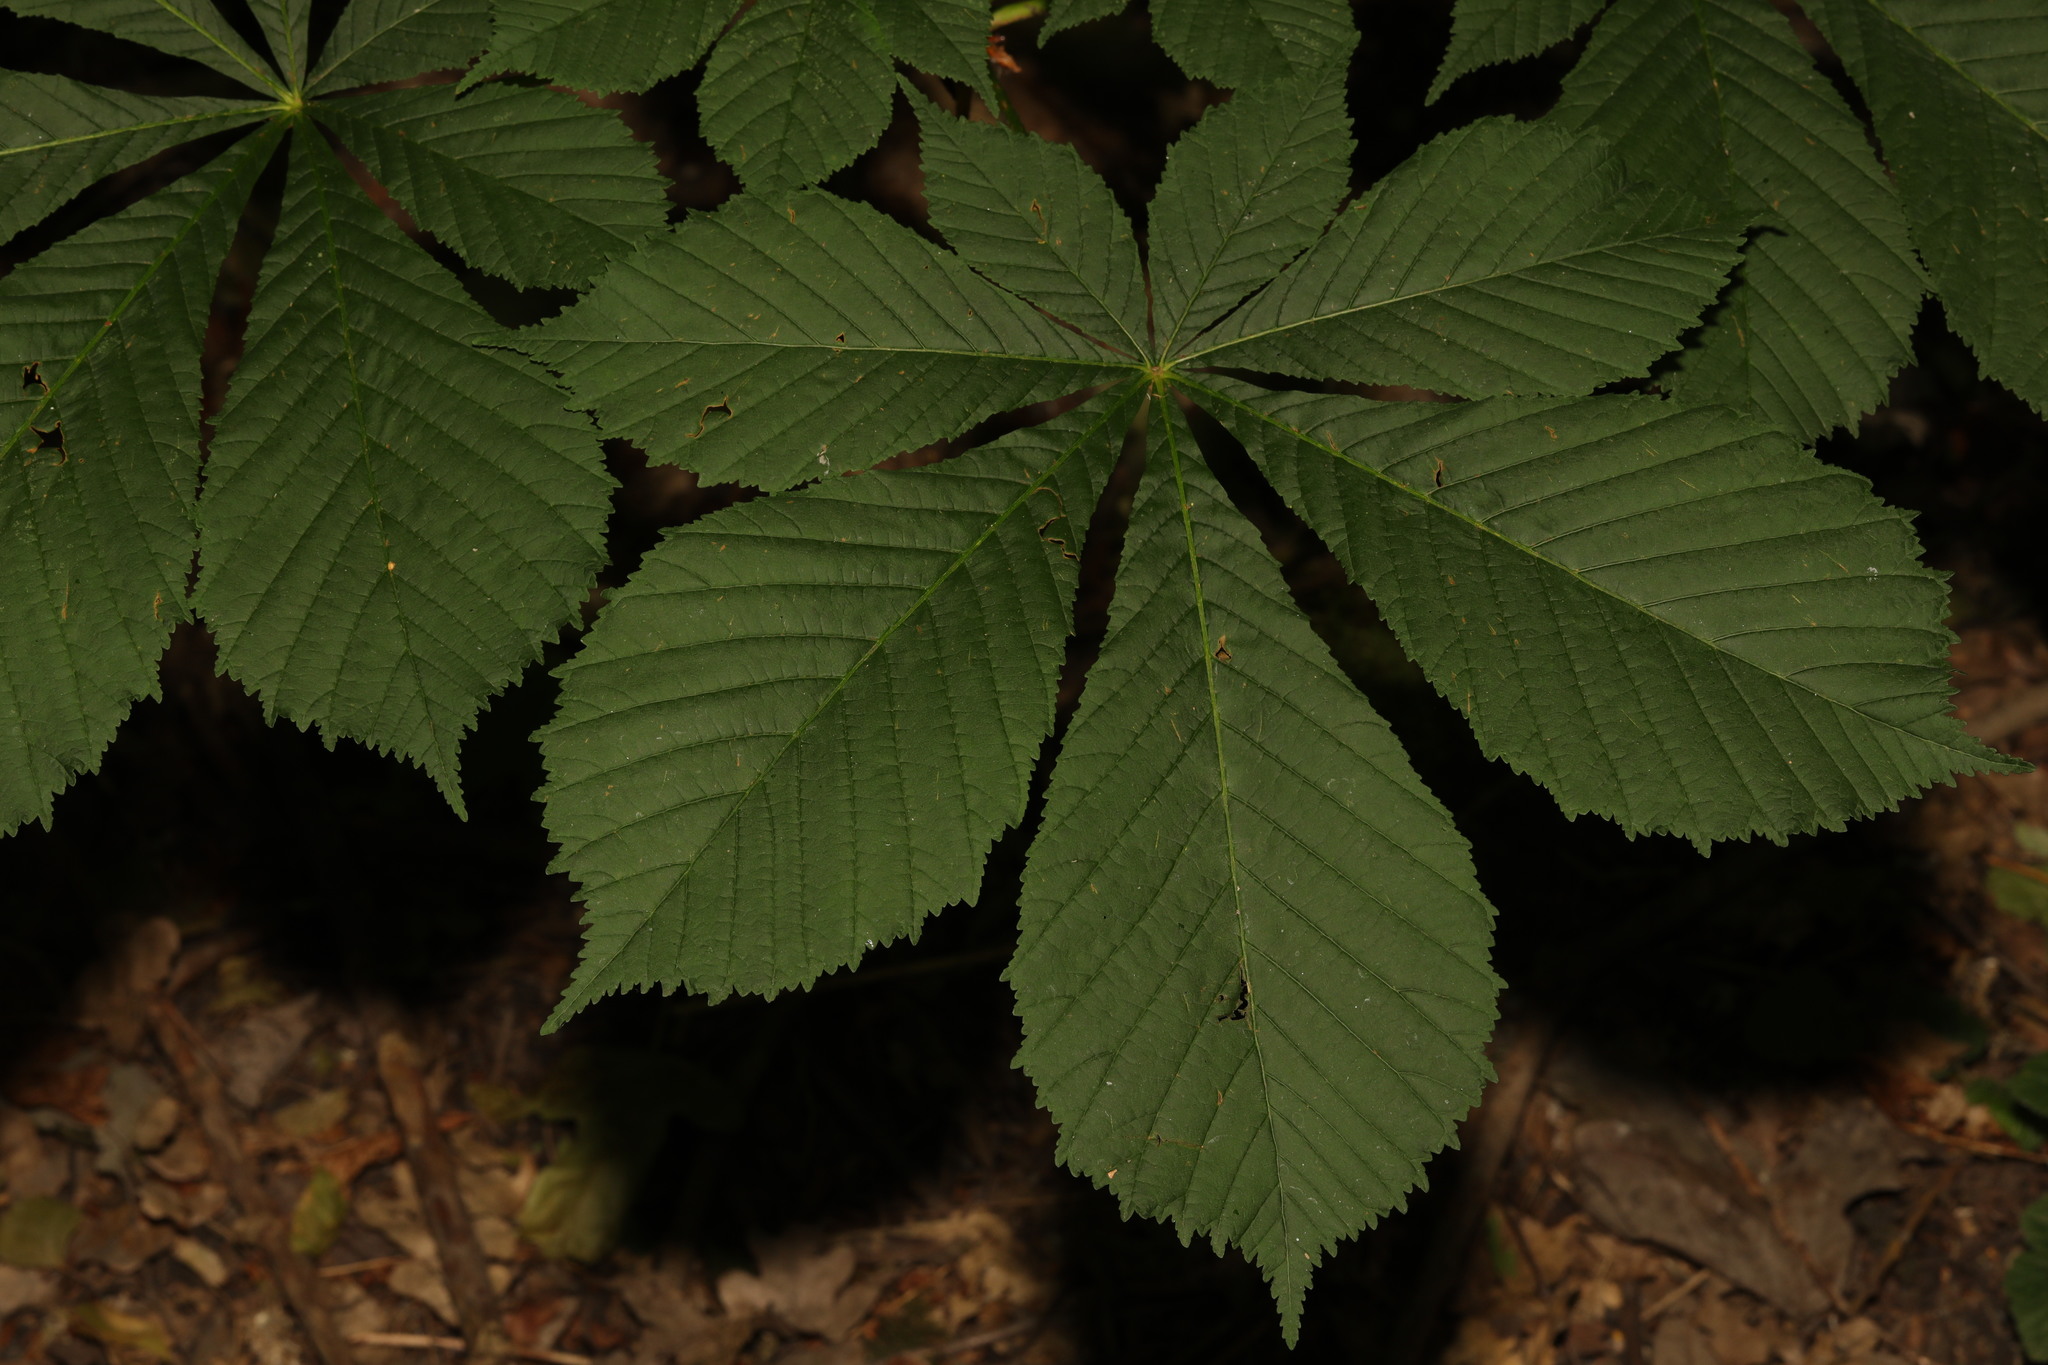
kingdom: Plantae
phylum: Tracheophyta
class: Magnoliopsida
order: Sapindales
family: Sapindaceae
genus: Aesculus
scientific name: Aesculus hippocastanum
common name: Horse-chestnut
